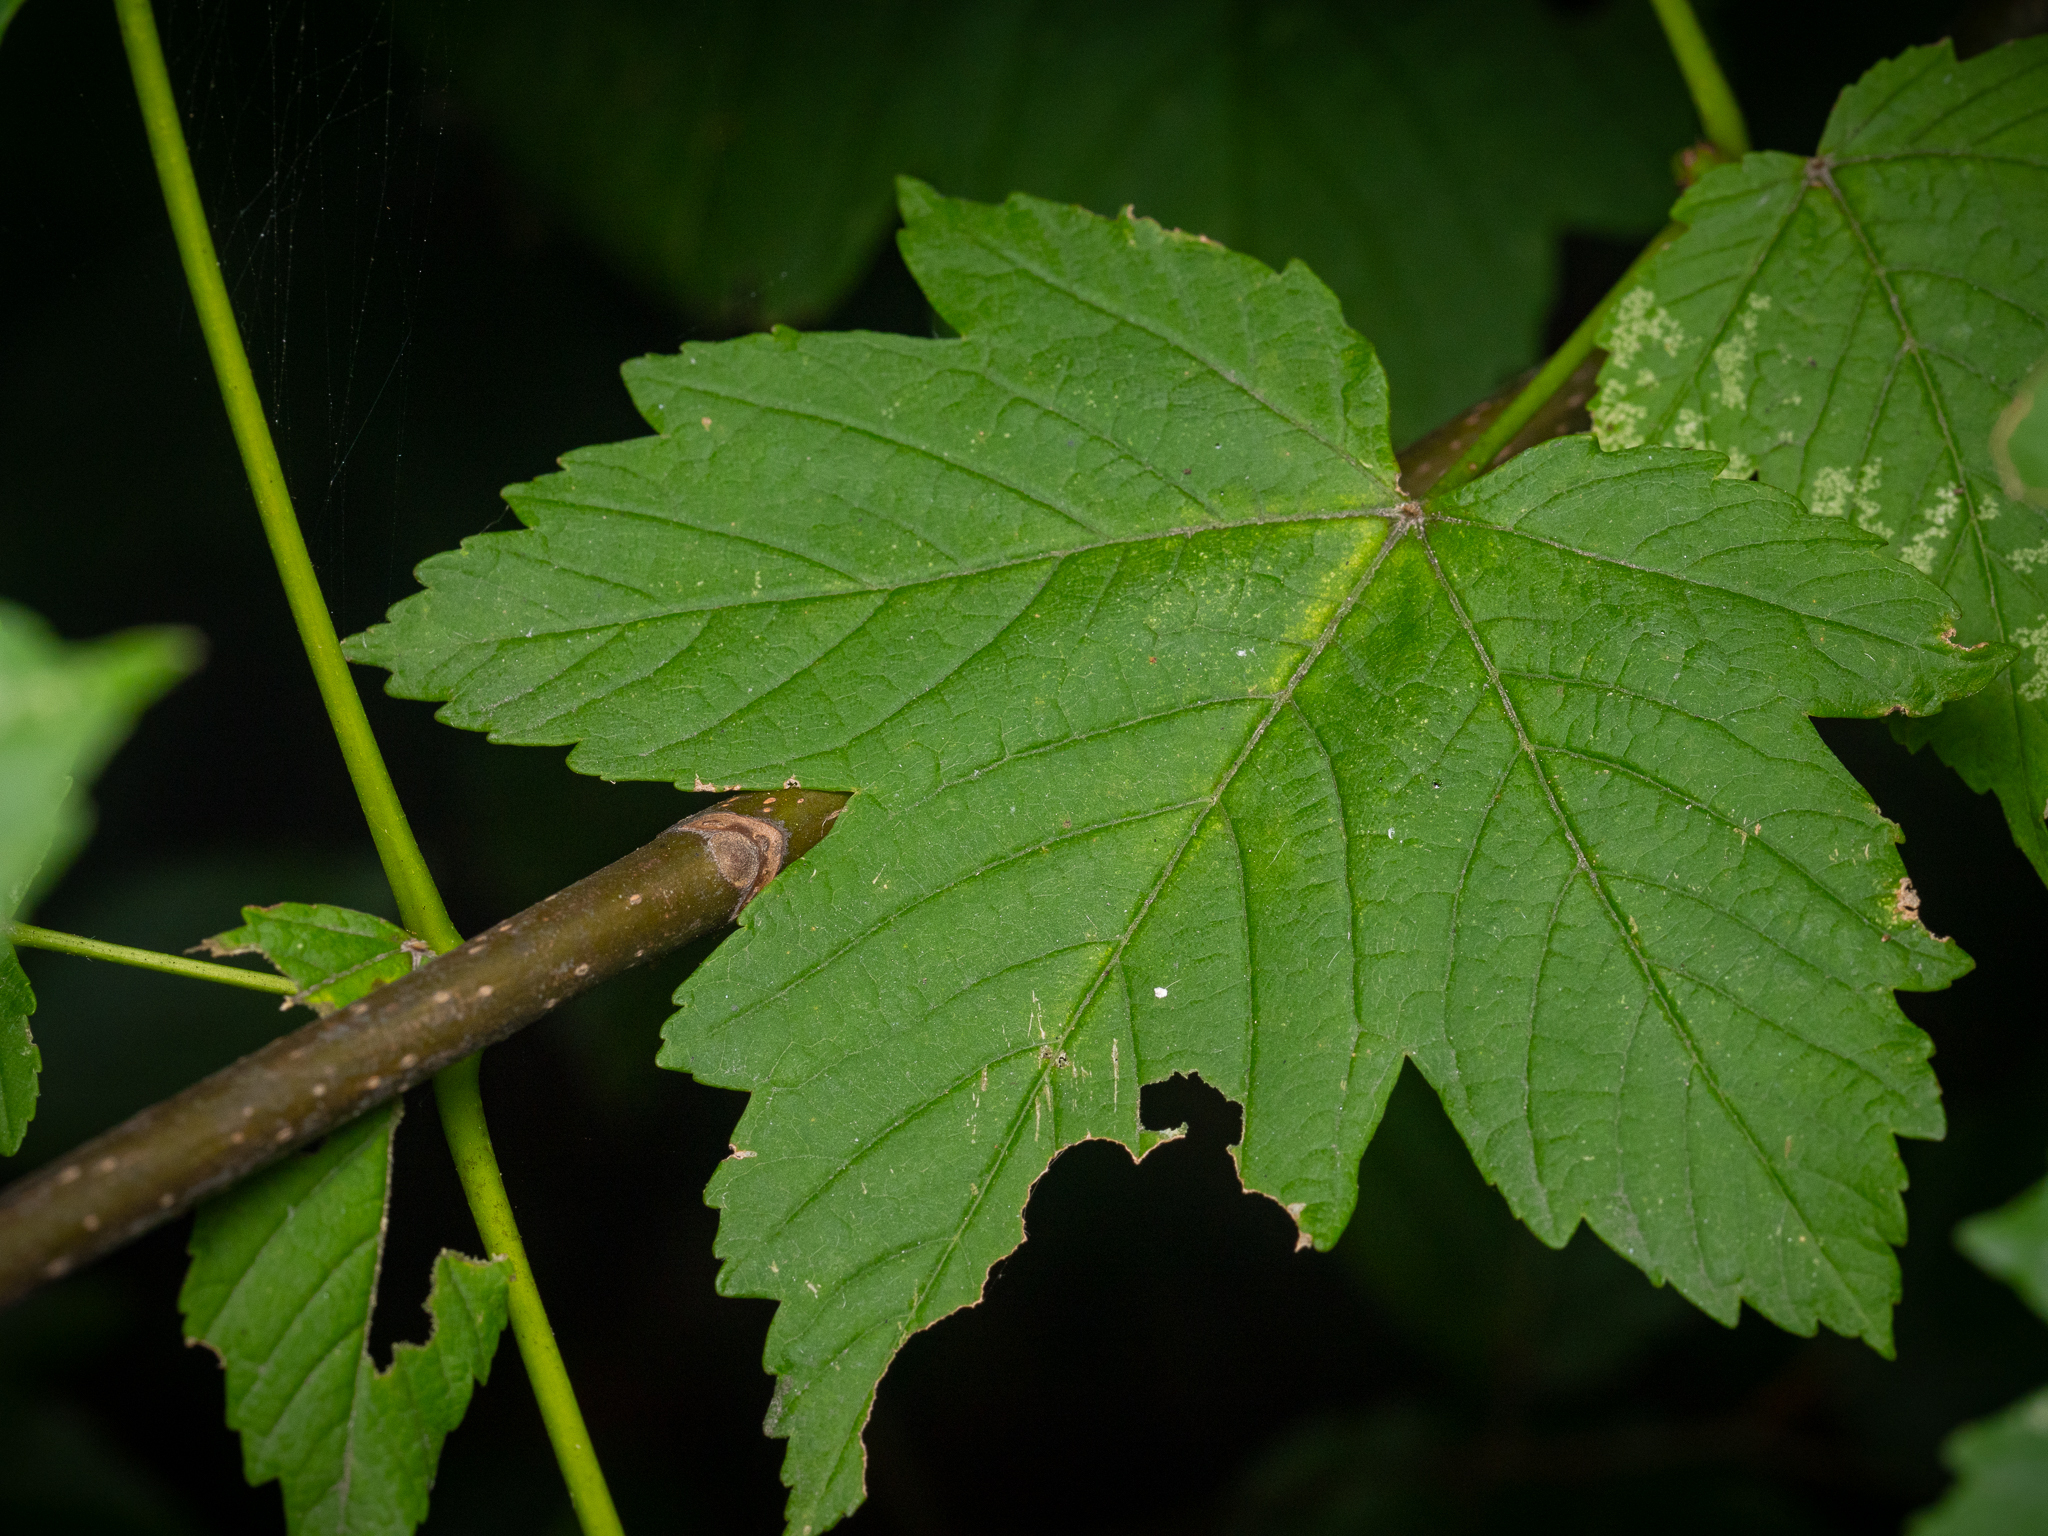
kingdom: Plantae
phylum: Tracheophyta
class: Magnoliopsida
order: Sapindales
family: Sapindaceae
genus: Acer
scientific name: Acer pseudoplatanus
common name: Sycamore
